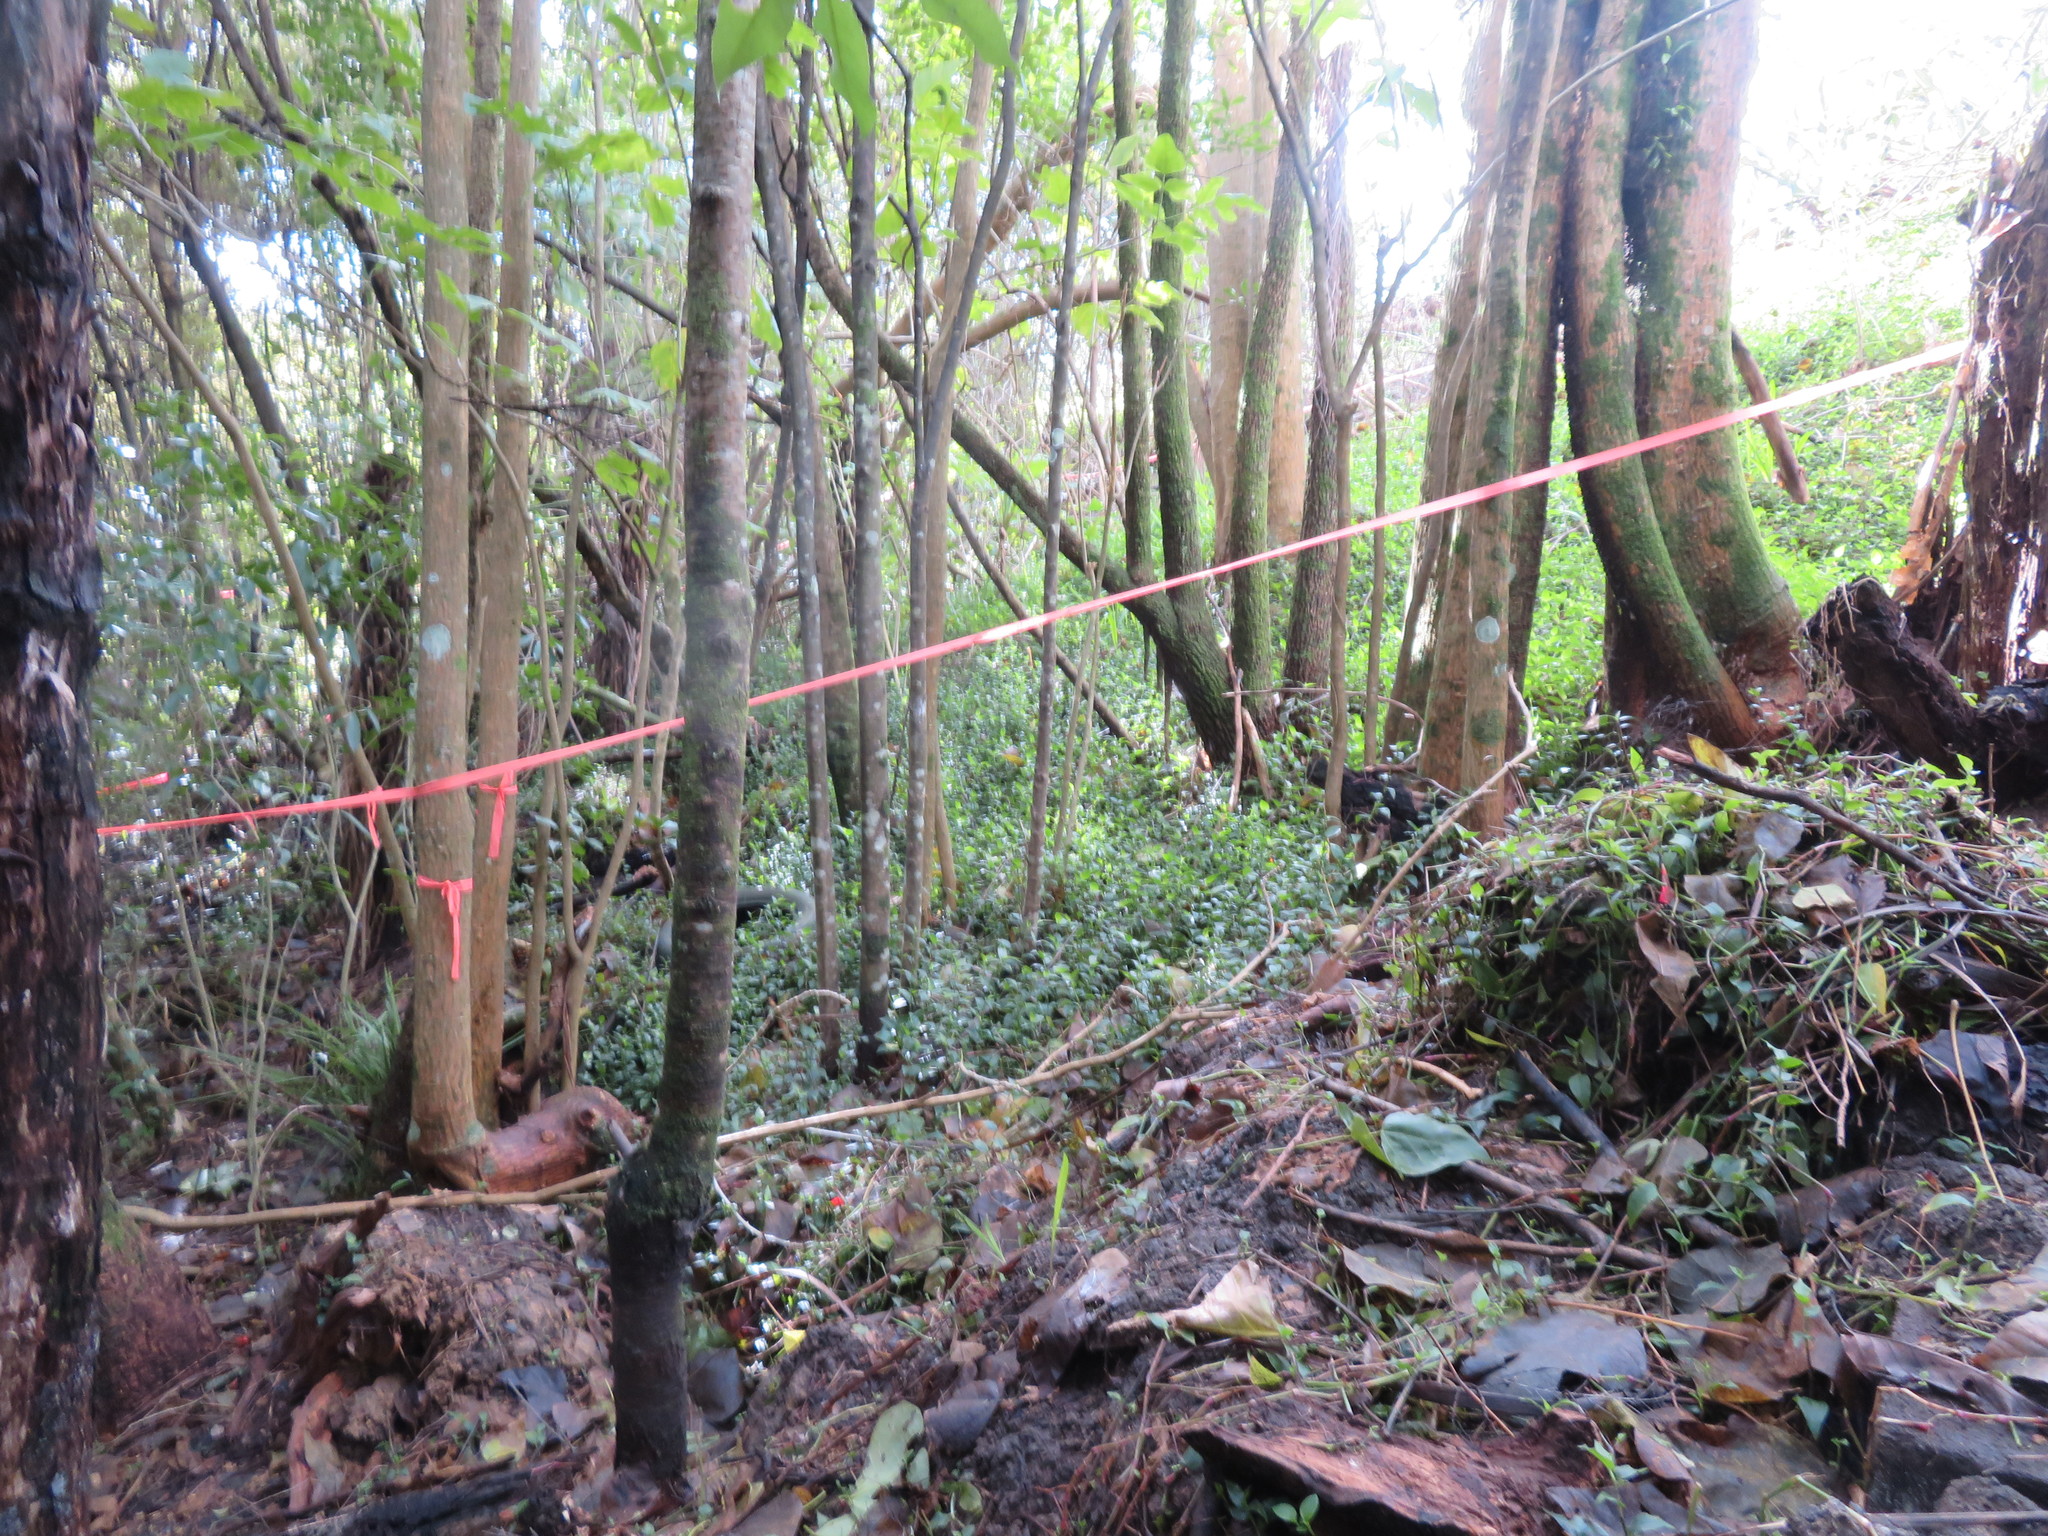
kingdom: Plantae
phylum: Tracheophyta
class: Liliopsida
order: Commelinales
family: Commelinaceae
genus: Tradescantia
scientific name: Tradescantia fluminensis
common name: Wandering-jew
